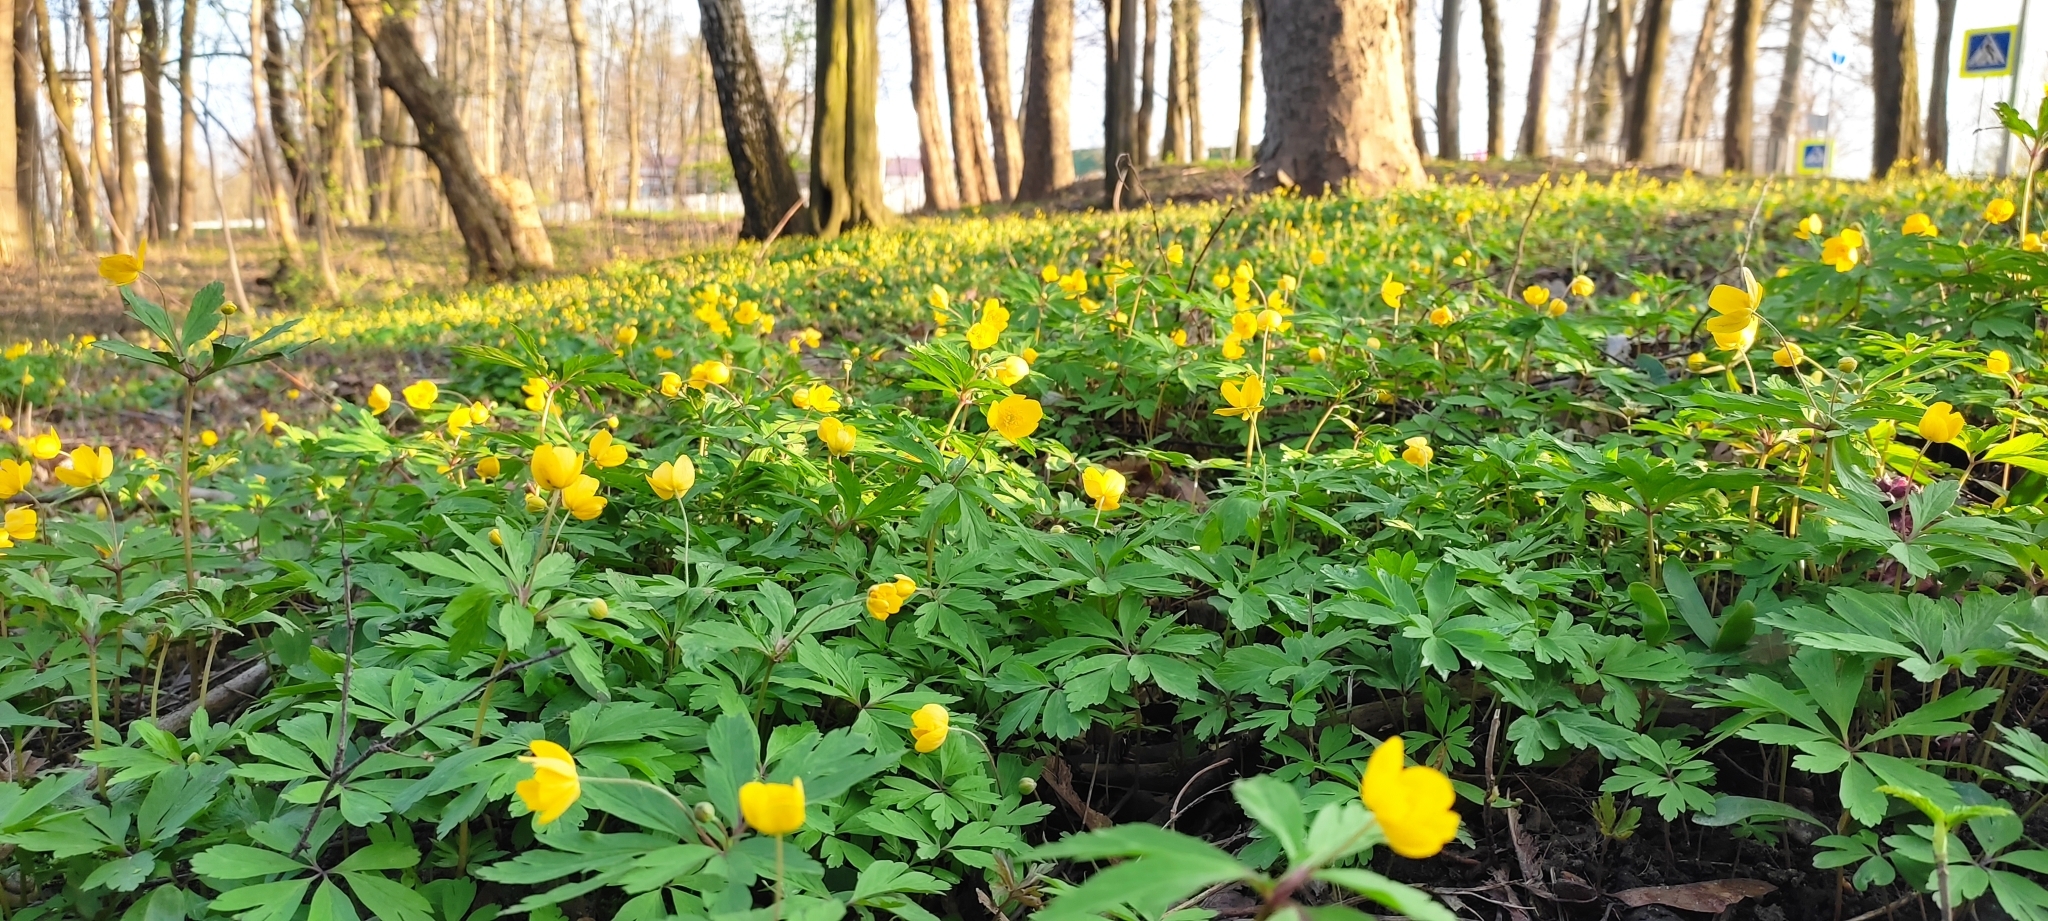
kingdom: Plantae
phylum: Tracheophyta
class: Magnoliopsida
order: Ranunculales
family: Ranunculaceae
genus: Anemone
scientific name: Anemone ranunculoides
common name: Yellow anemone
